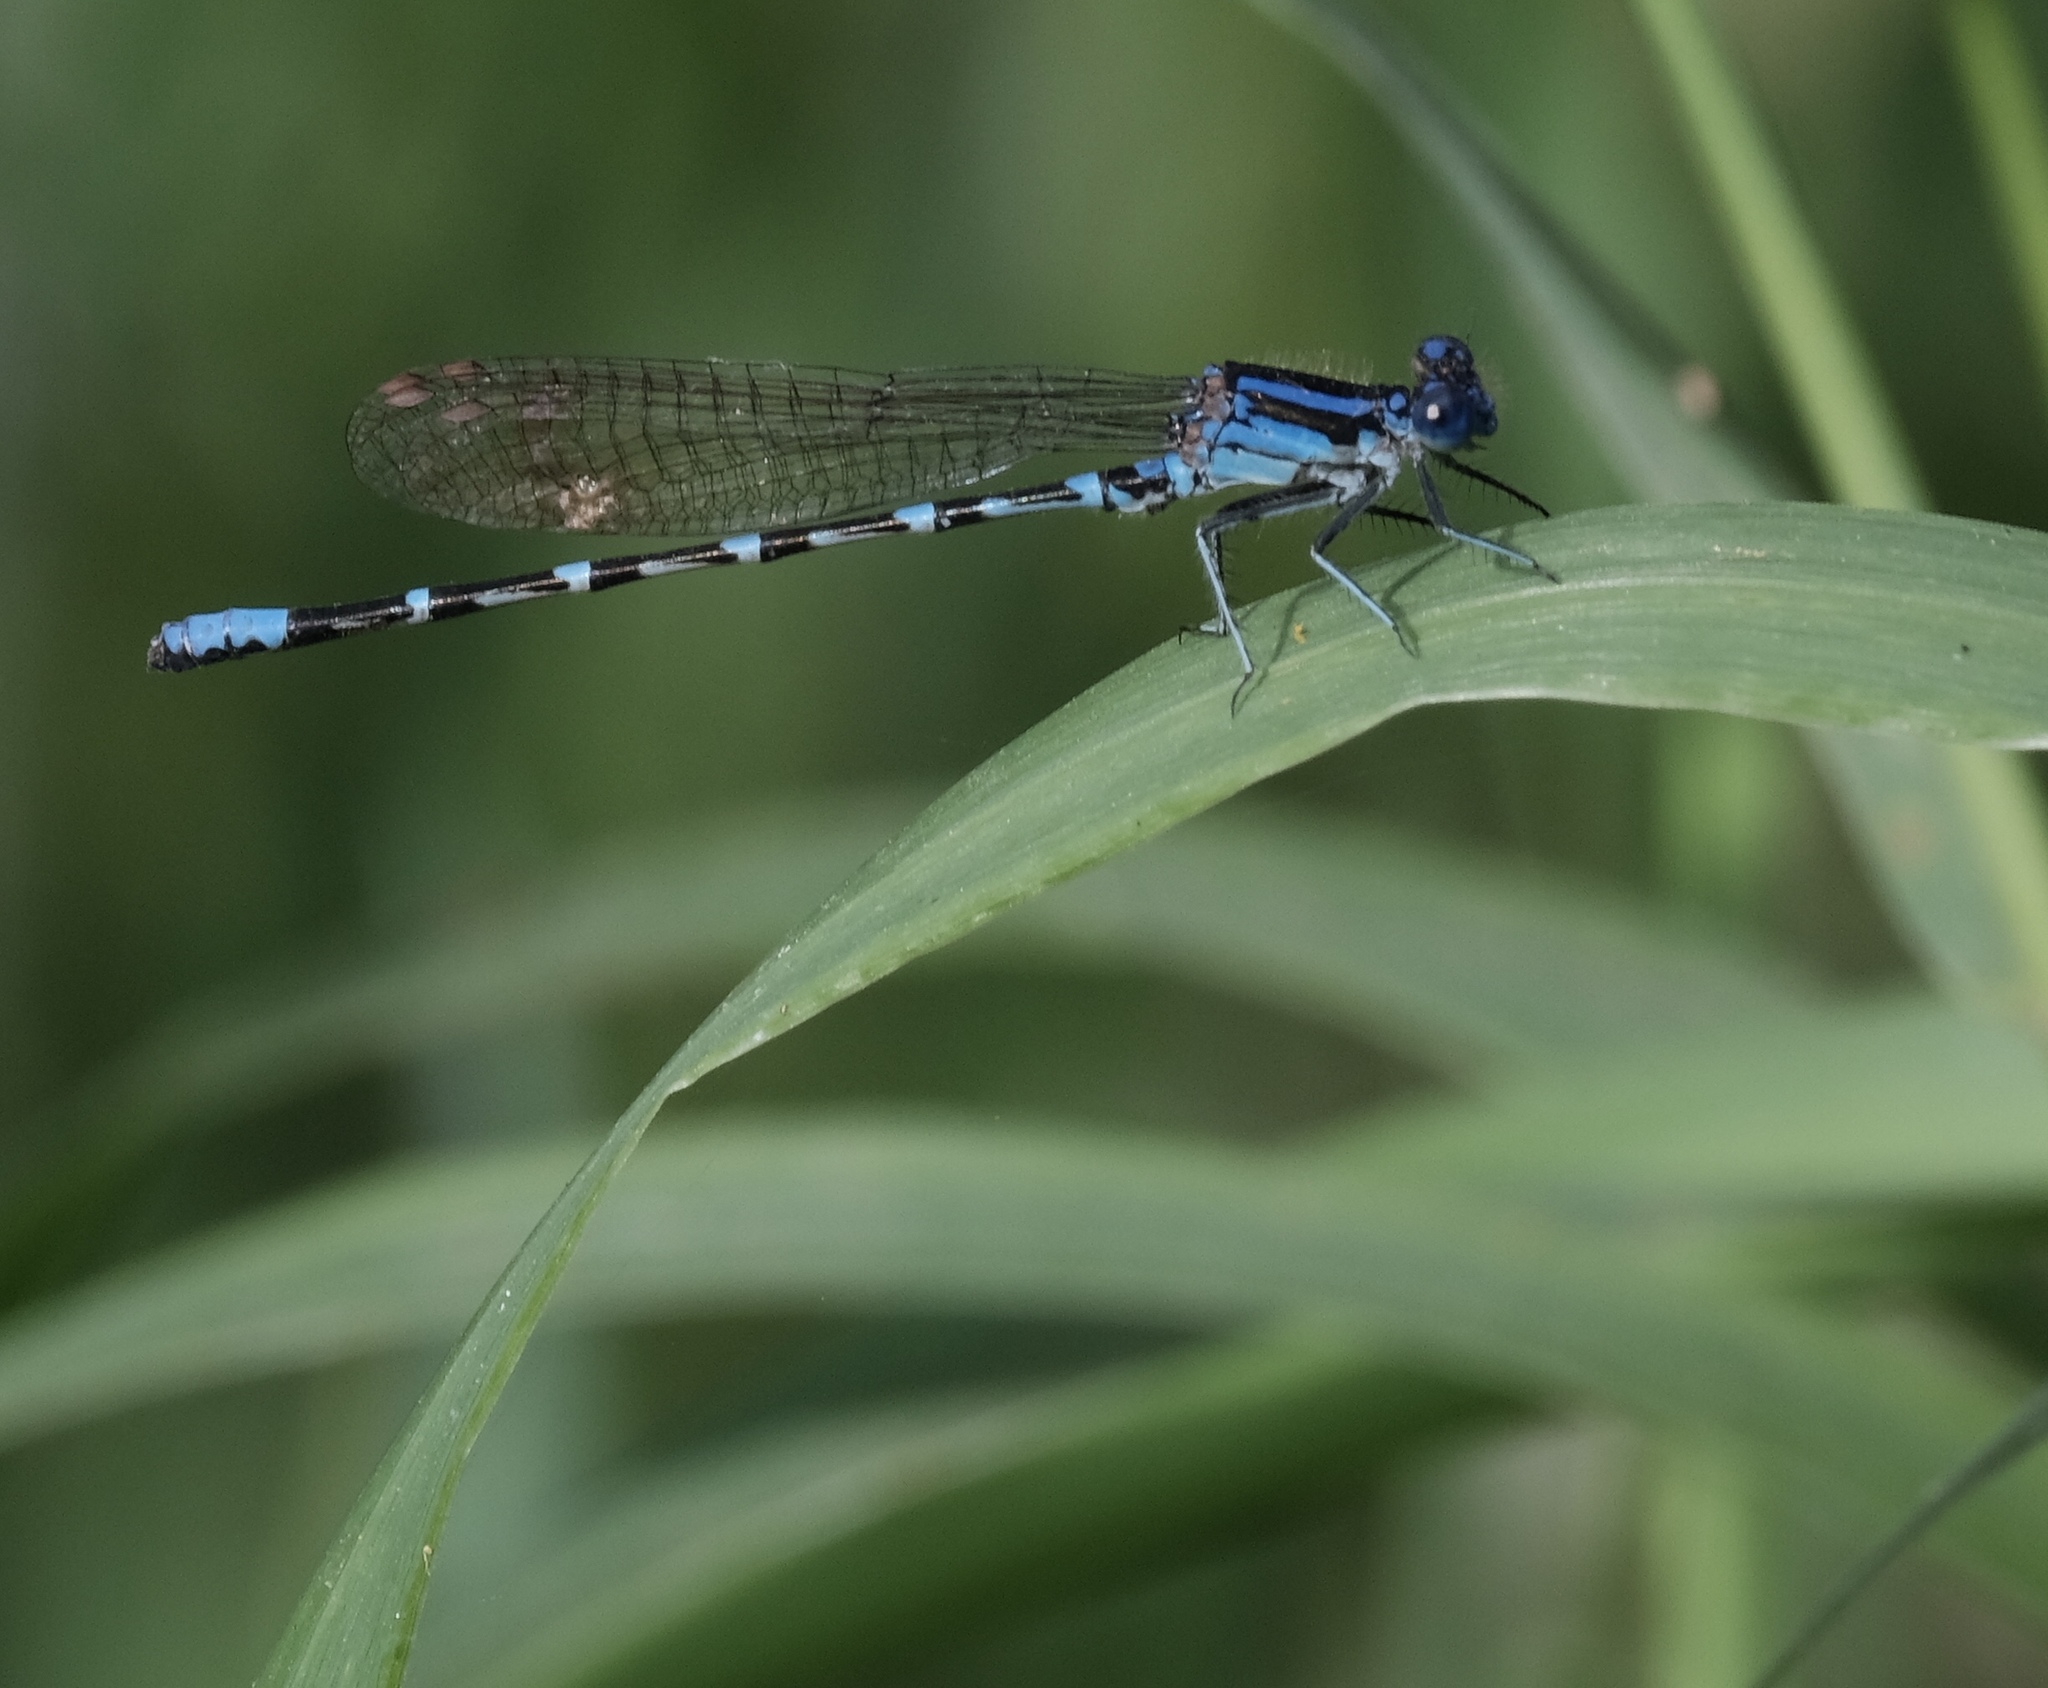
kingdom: Animalia
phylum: Arthropoda
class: Insecta
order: Odonata
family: Coenagrionidae
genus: Argia
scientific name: Argia sedula
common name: Blue-ringed dancer
